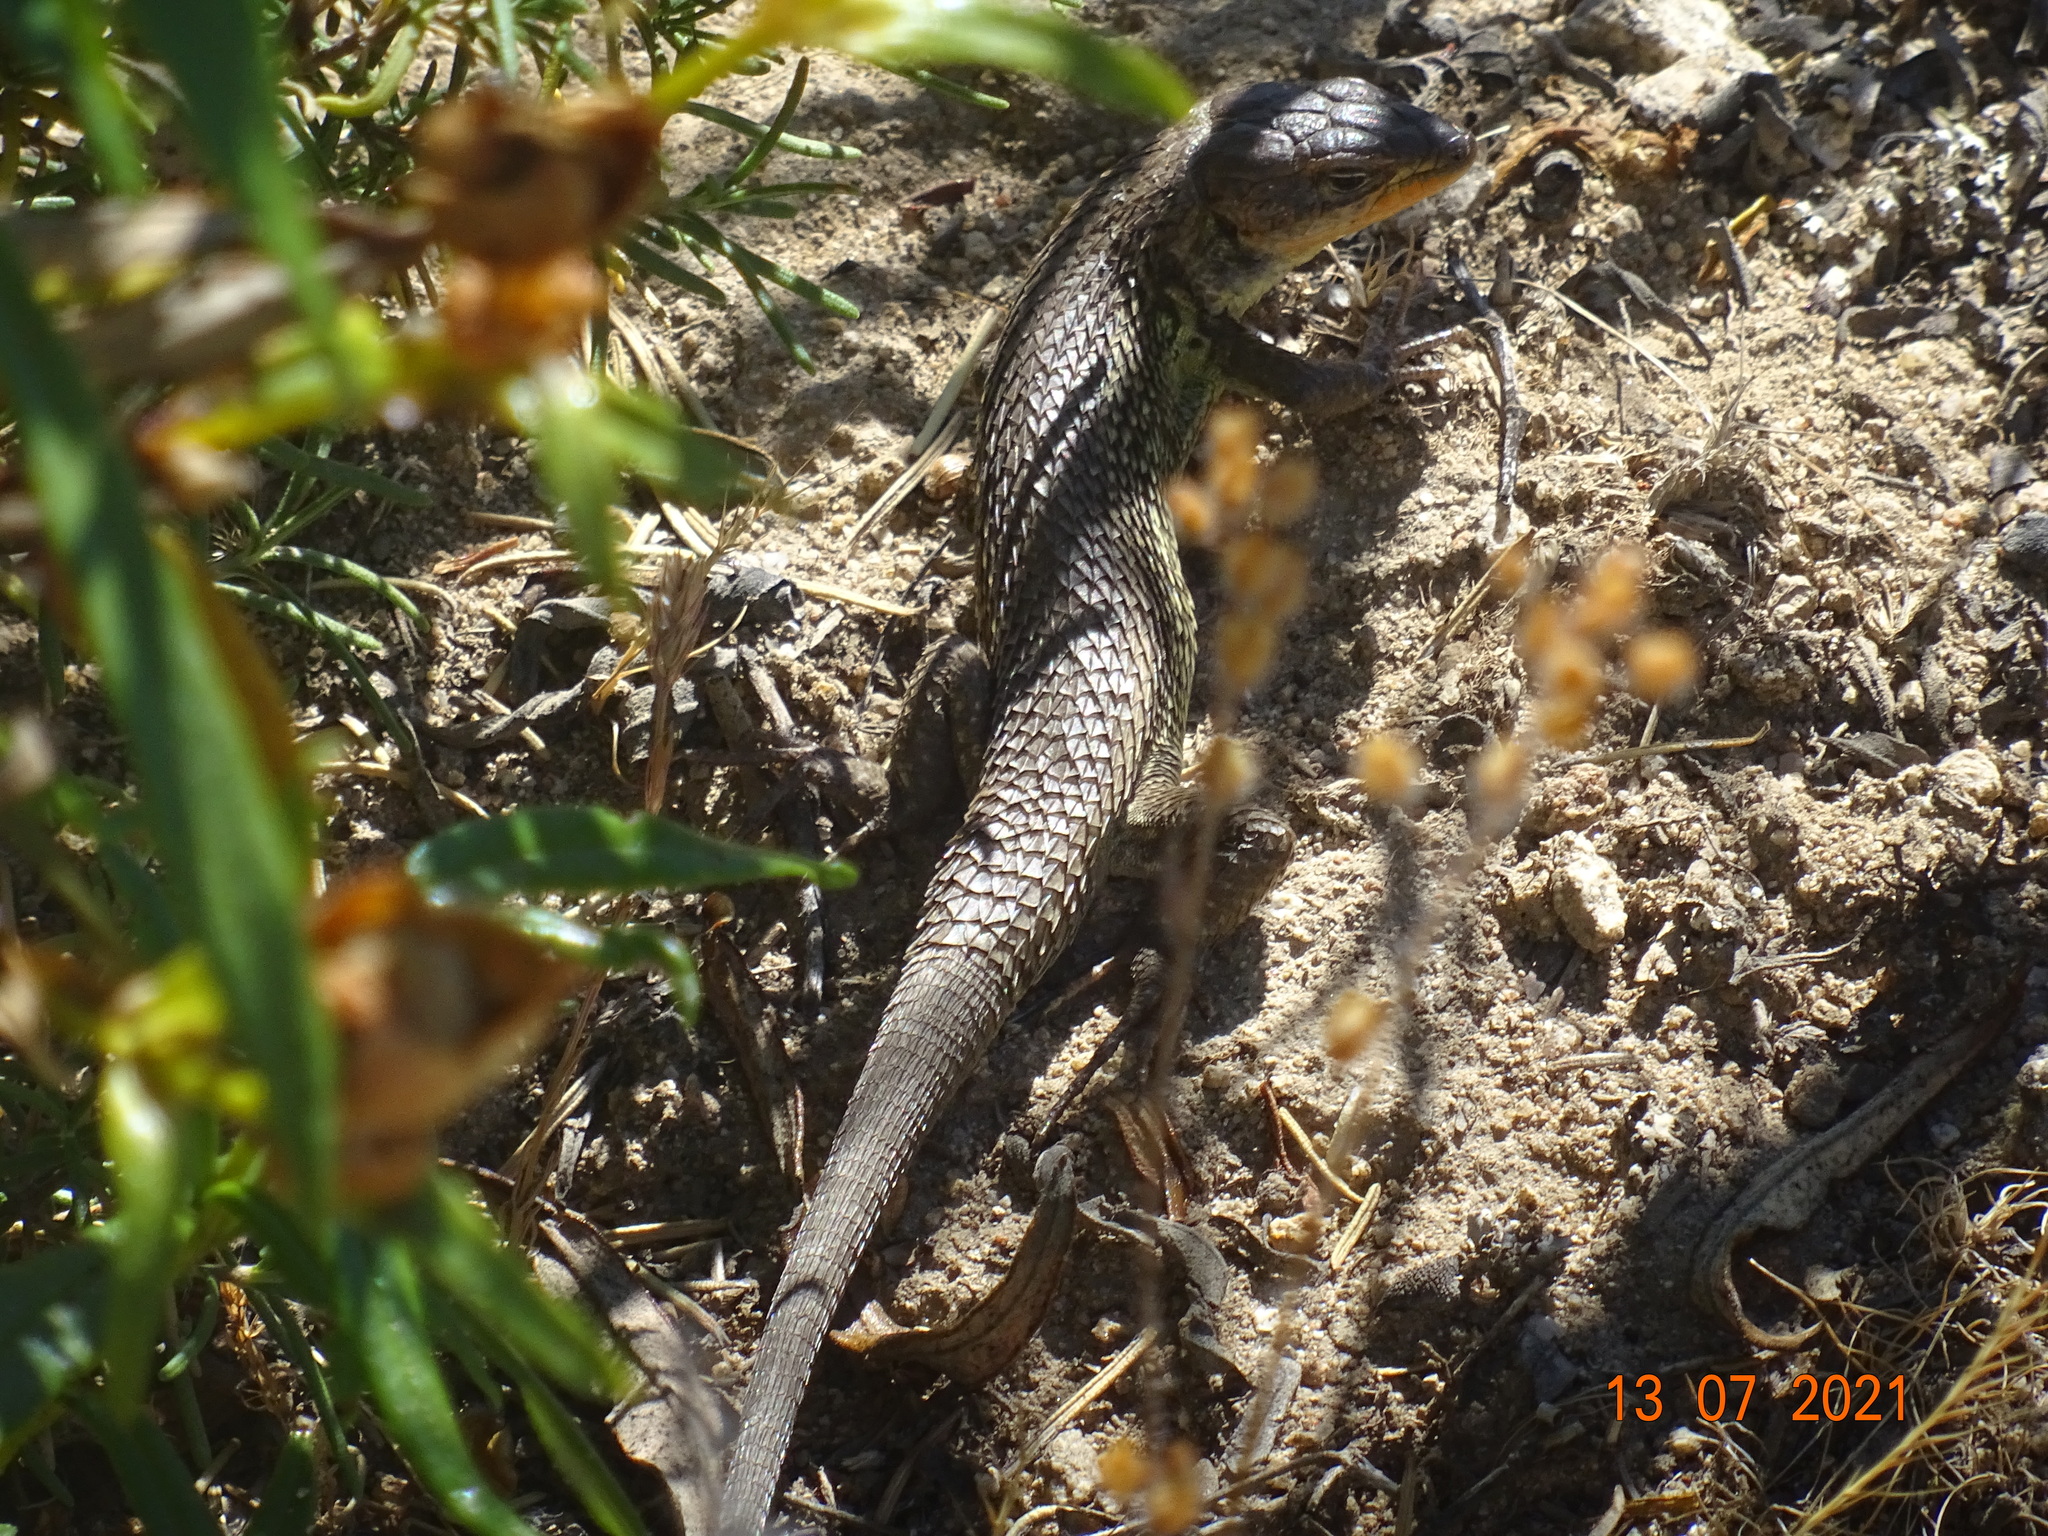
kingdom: Animalia
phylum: Chordata
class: Squamata
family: Lacertidae
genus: Psammodromus
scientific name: Psammodromus algirus
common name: Algerian psammodromus
